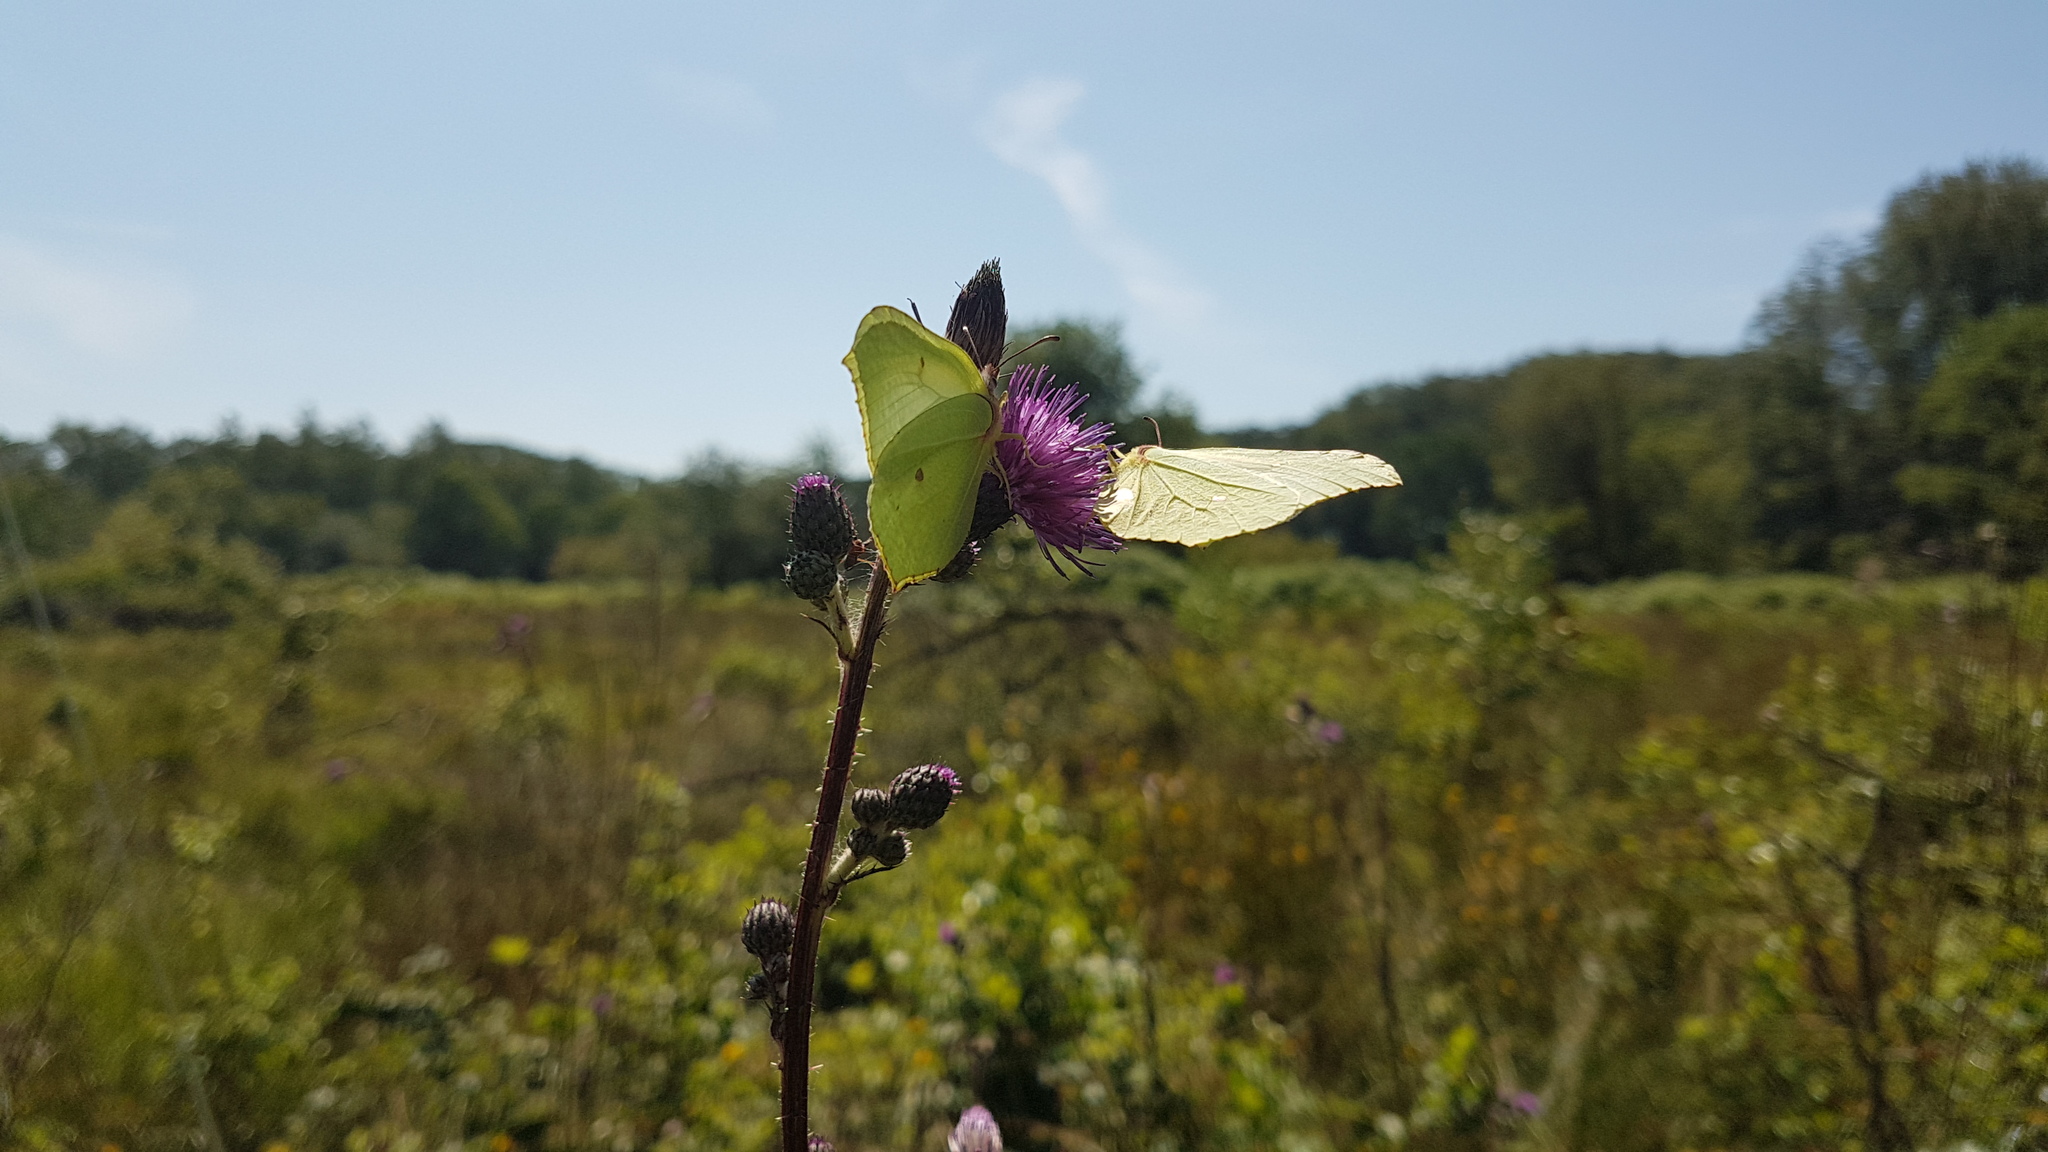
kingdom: Animalia
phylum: Arthropoda
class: Insecta
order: Lepidoptera
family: Pieridae
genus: Gonepteryx
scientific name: Gonepteryx rhamni
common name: Brimstone
